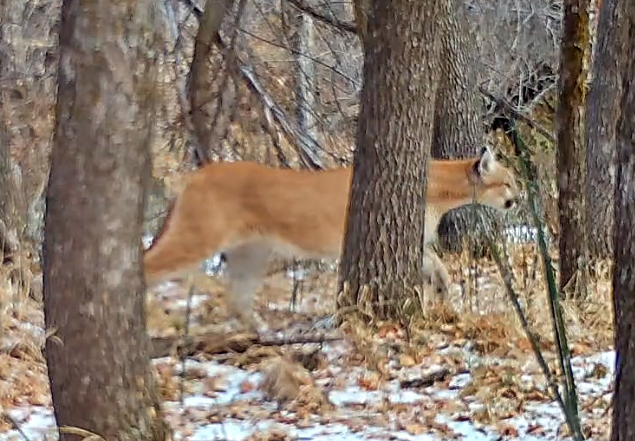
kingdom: Animalia
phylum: Chordata
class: Mammalia
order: Carnivora
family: Felidae
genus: Puma
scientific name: Puma concolor
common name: Puma
